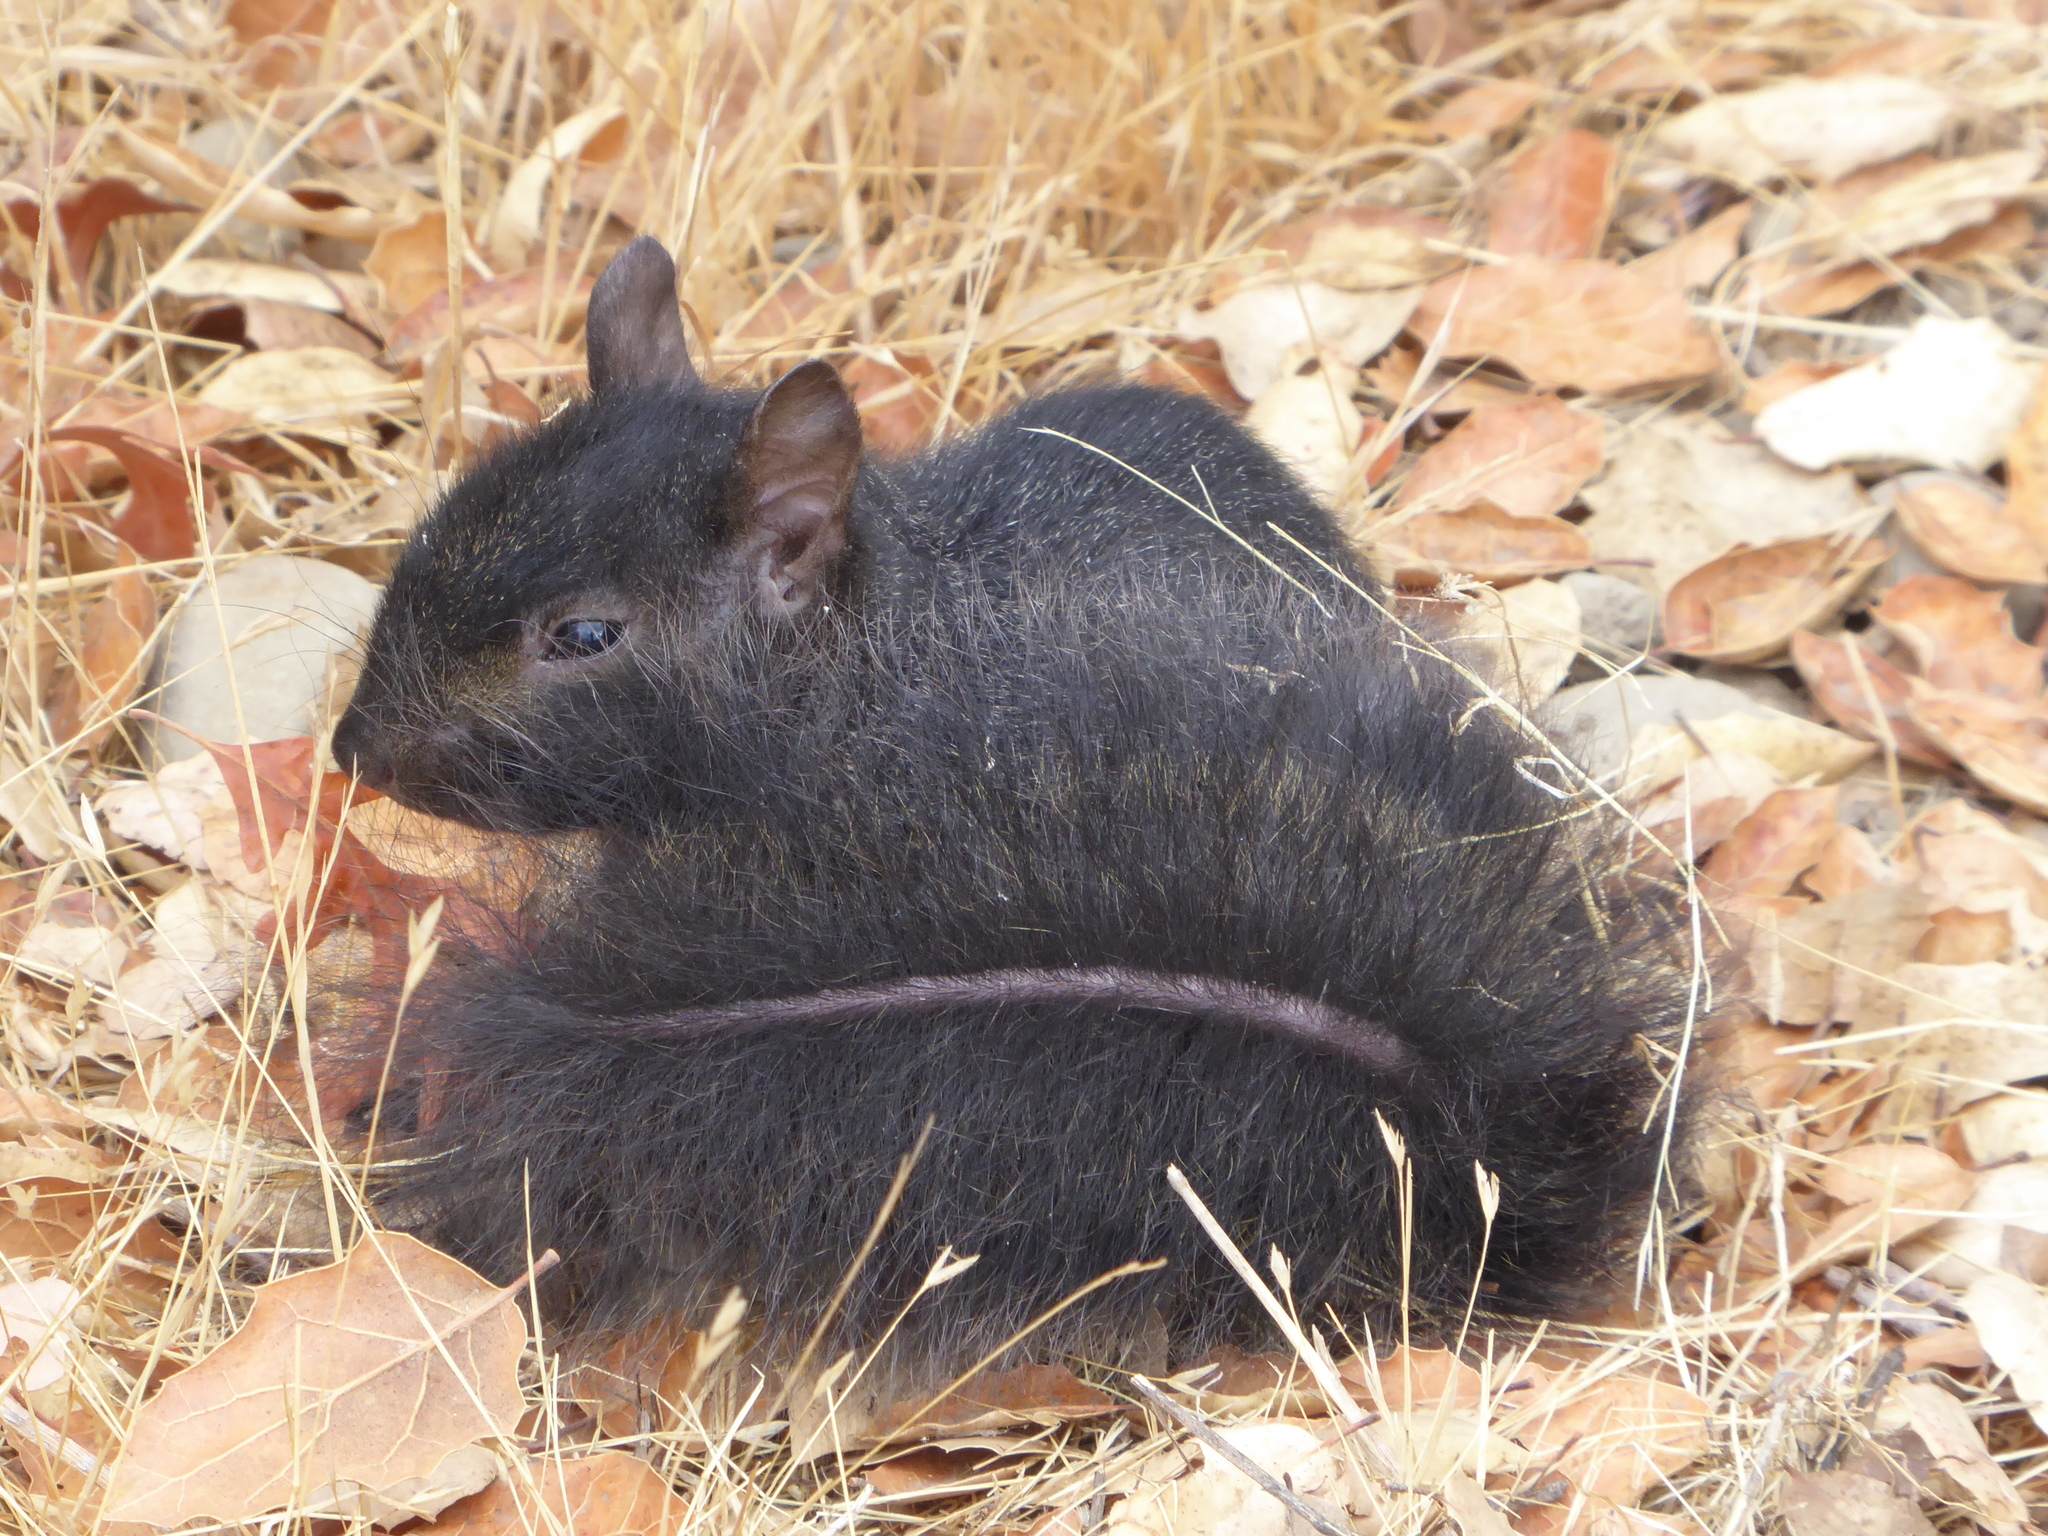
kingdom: Animalia
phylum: Chordata
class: Mammalia
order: Rodentia
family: Sciuridae
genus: Sciurus
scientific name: Sciurus carolinensis
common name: Eastern gray squirrel
